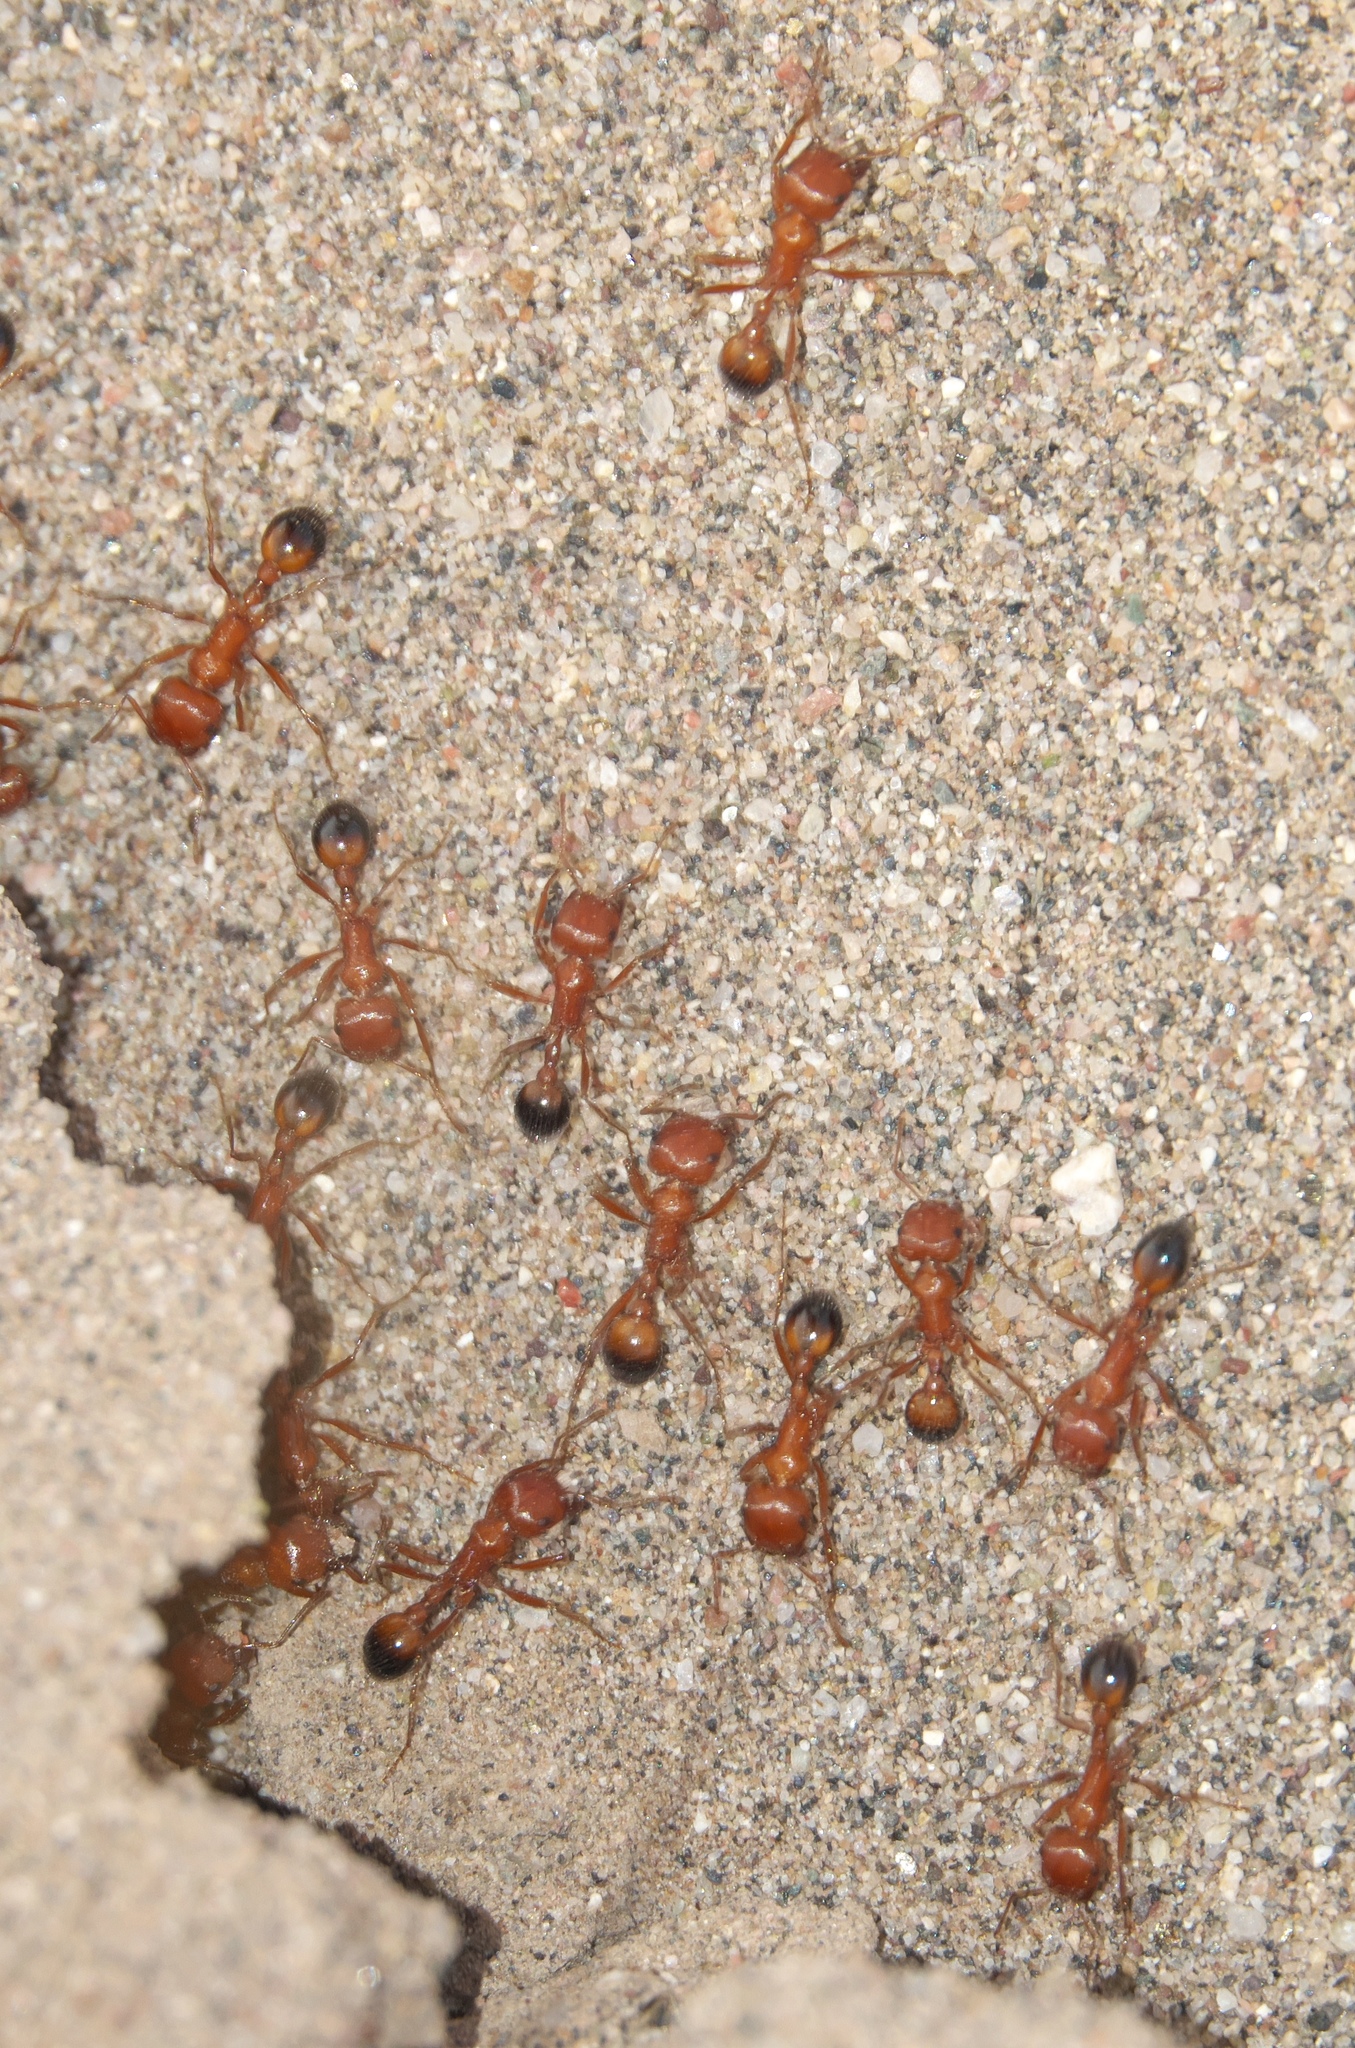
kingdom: Animalia
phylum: Arthropoda
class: Insecta
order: Hymenoptera
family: Formicidae
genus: Pogonomyrmex
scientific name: Pogonomyrmex californicus
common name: California harvester ant
